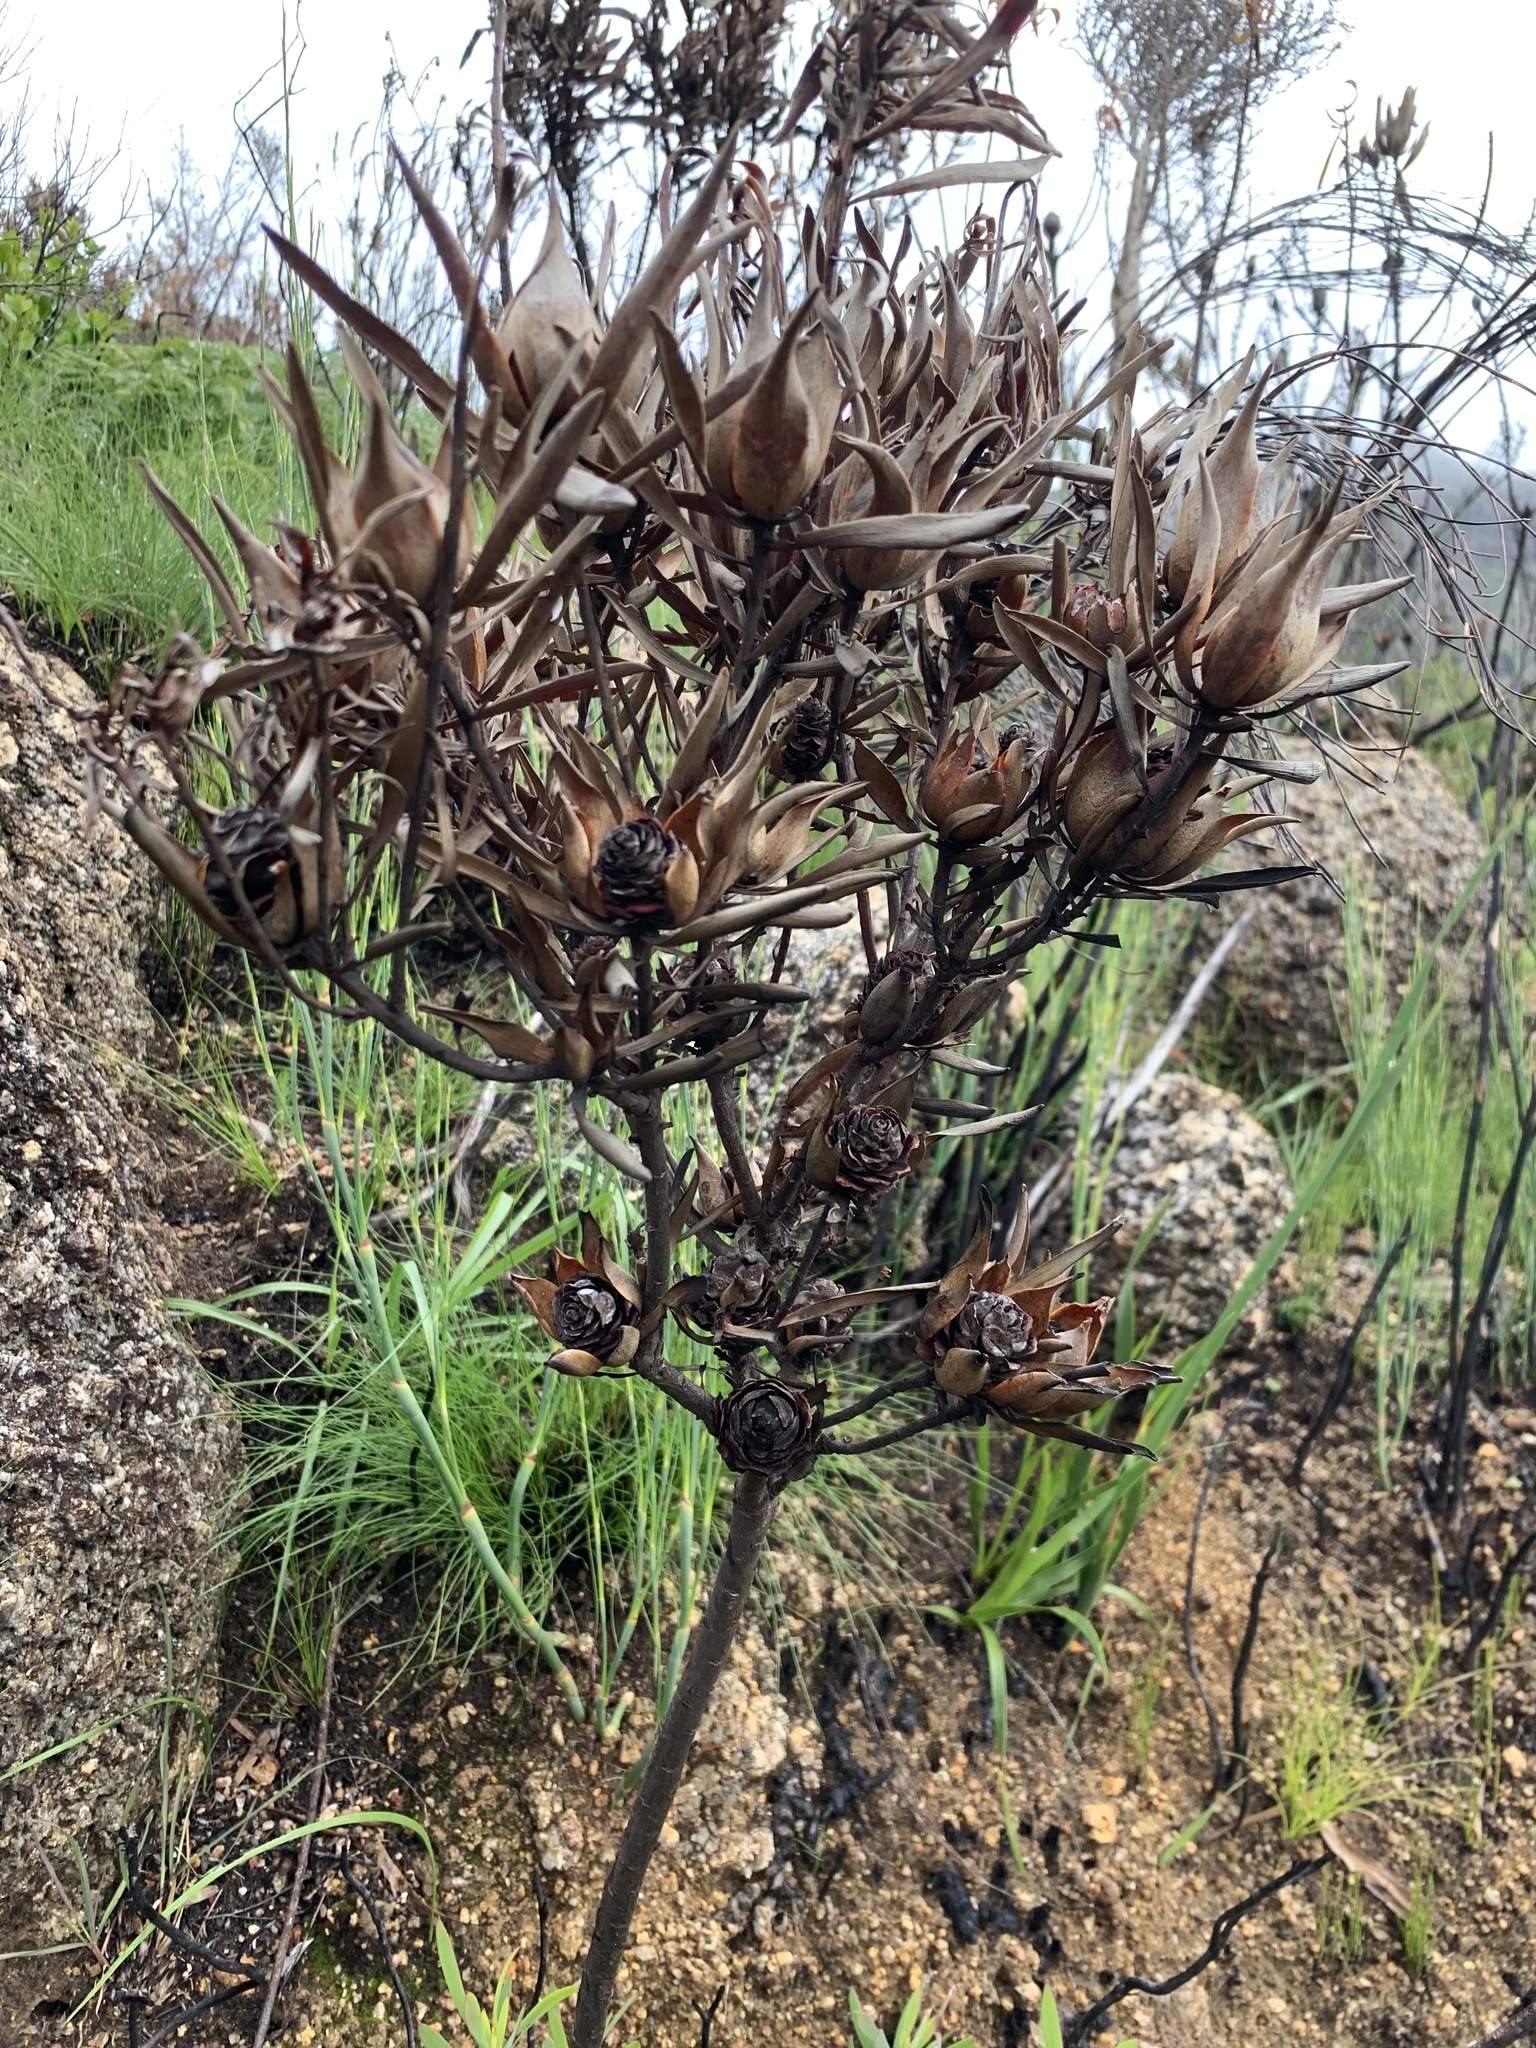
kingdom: Plantae
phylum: Tracheophyta
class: Magnoliopsida
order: Proteales
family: Proteaceae
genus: Leucadendron
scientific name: Leucadendron salignum
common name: Common sunshine conebush
